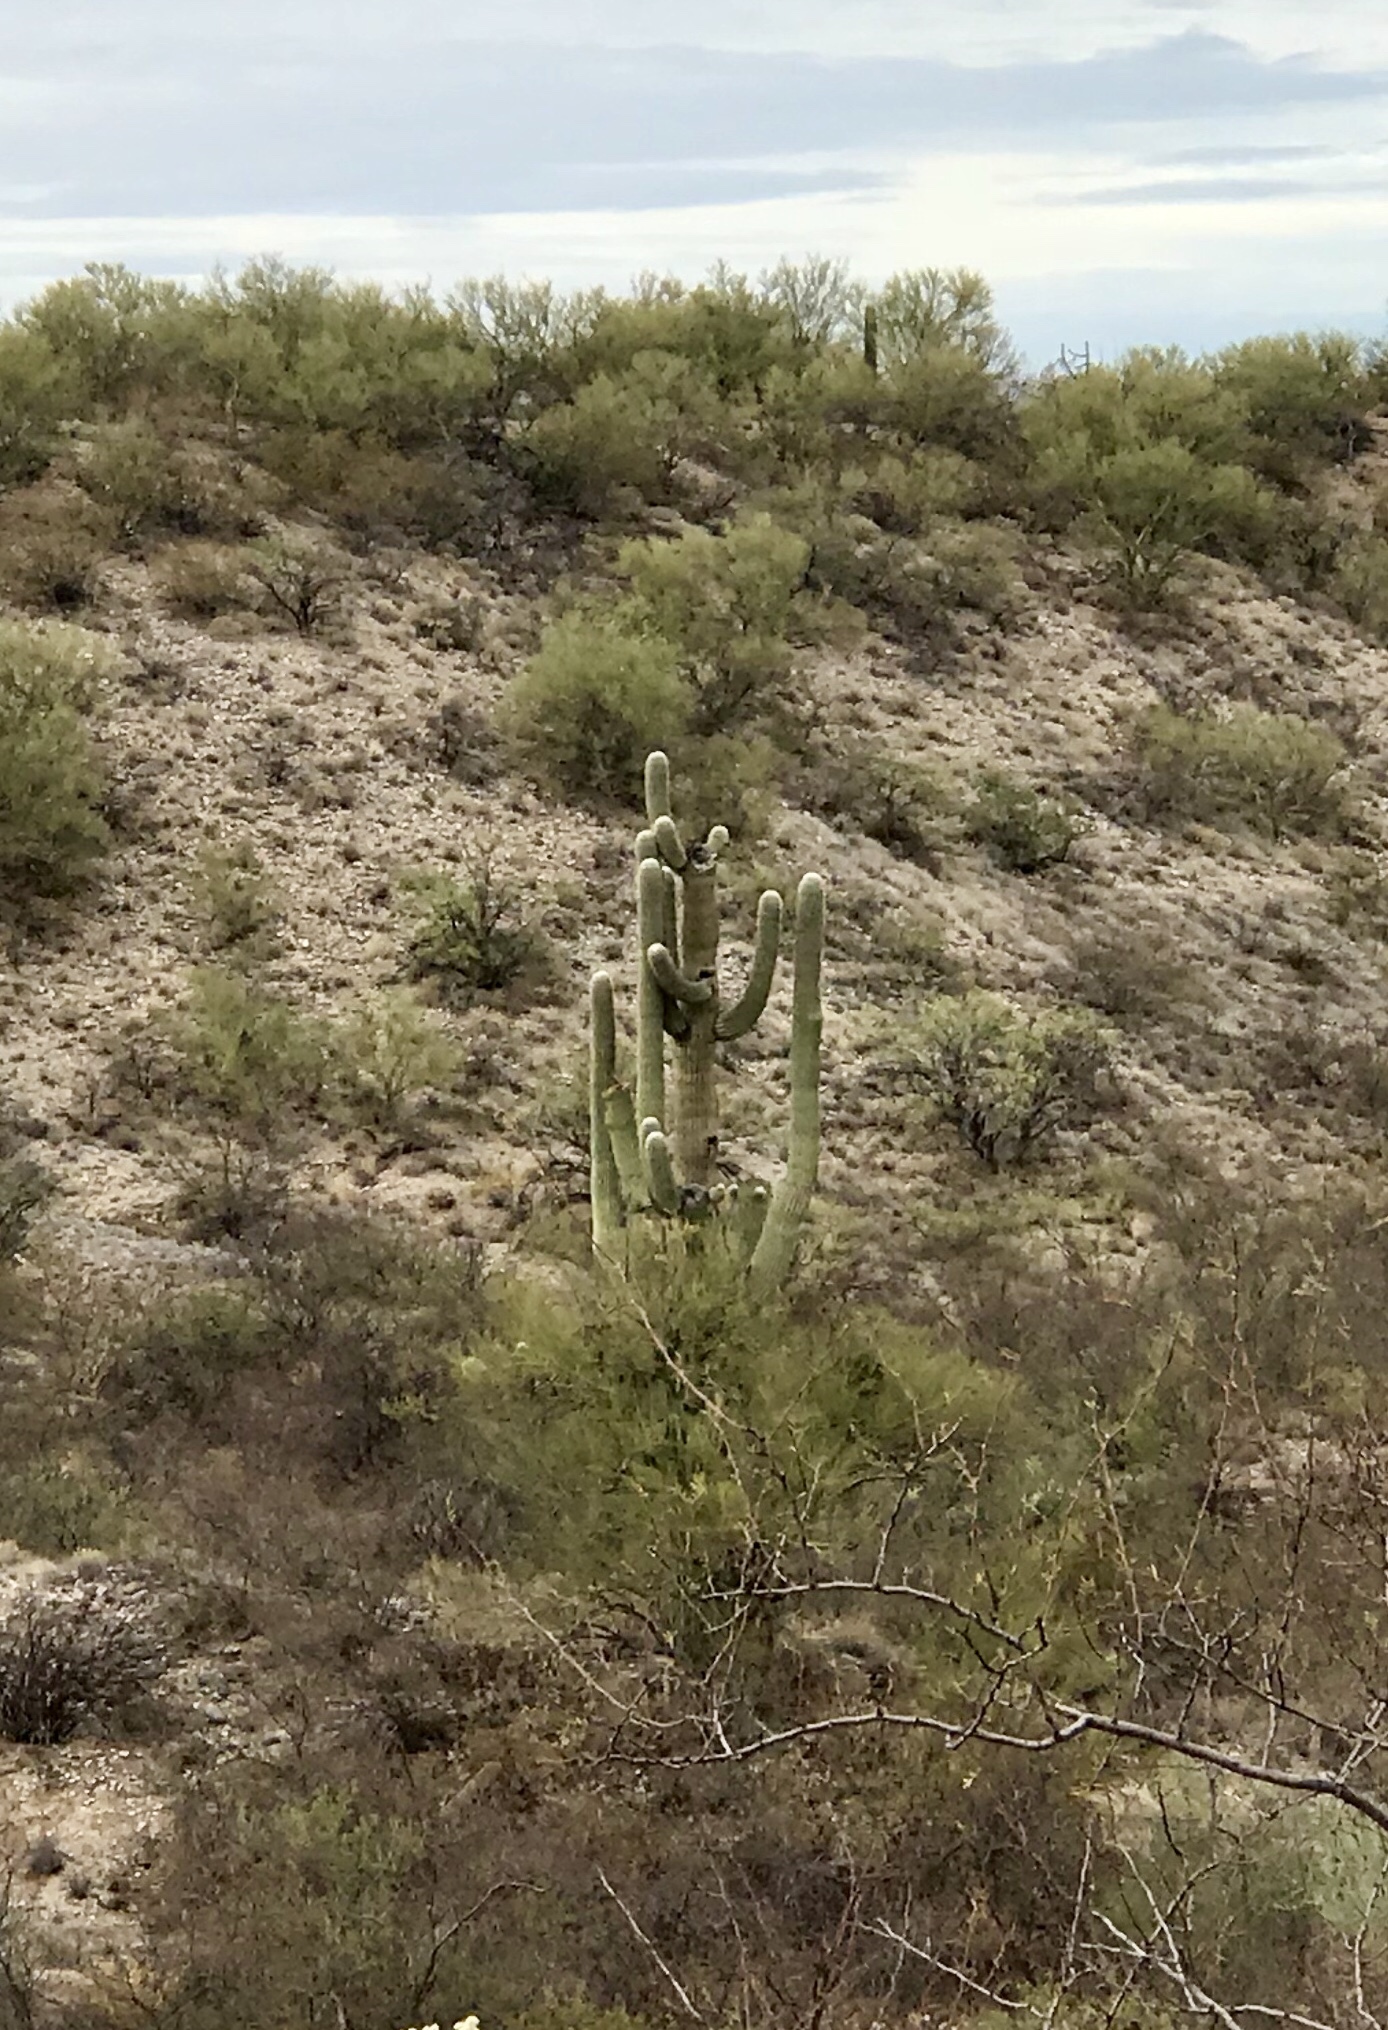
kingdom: Plantae
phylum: Tracheophyta
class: Magnoliopsida
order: Caryophyllales
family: Cactaceae
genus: Carnegiea
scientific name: Carnegiea gigantea
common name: Saguaro
